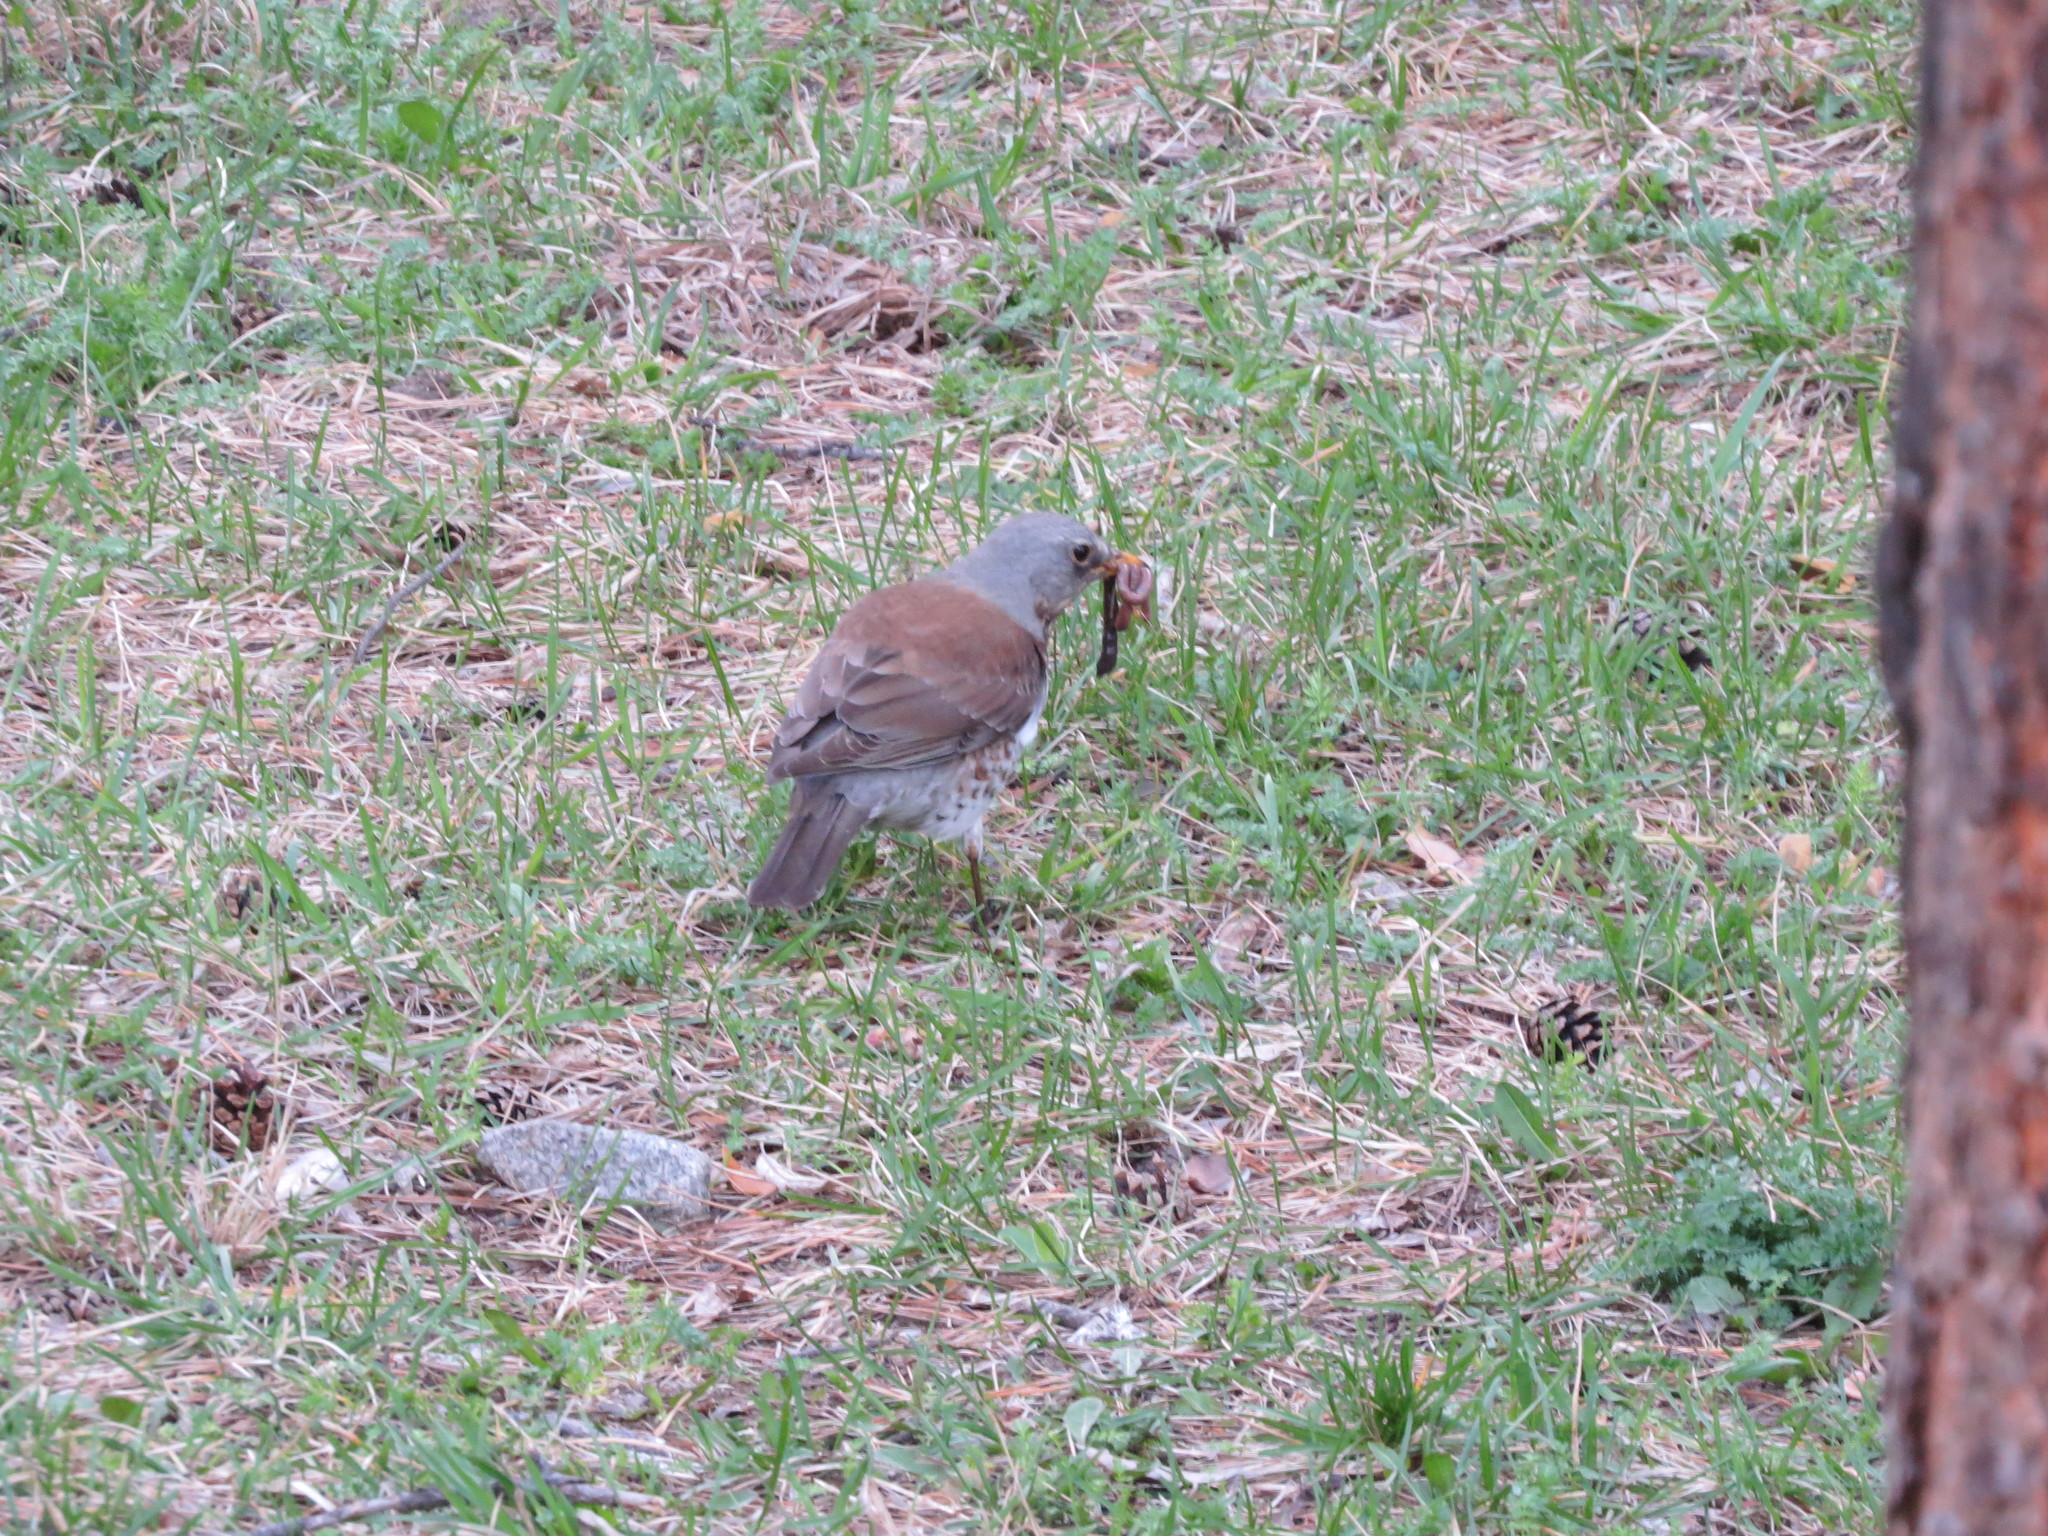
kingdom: Animalia
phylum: Chordata
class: Aves
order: Passeriformes
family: Turdidae
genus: Turdus
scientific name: Turdus pilaris
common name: Fieldfare
